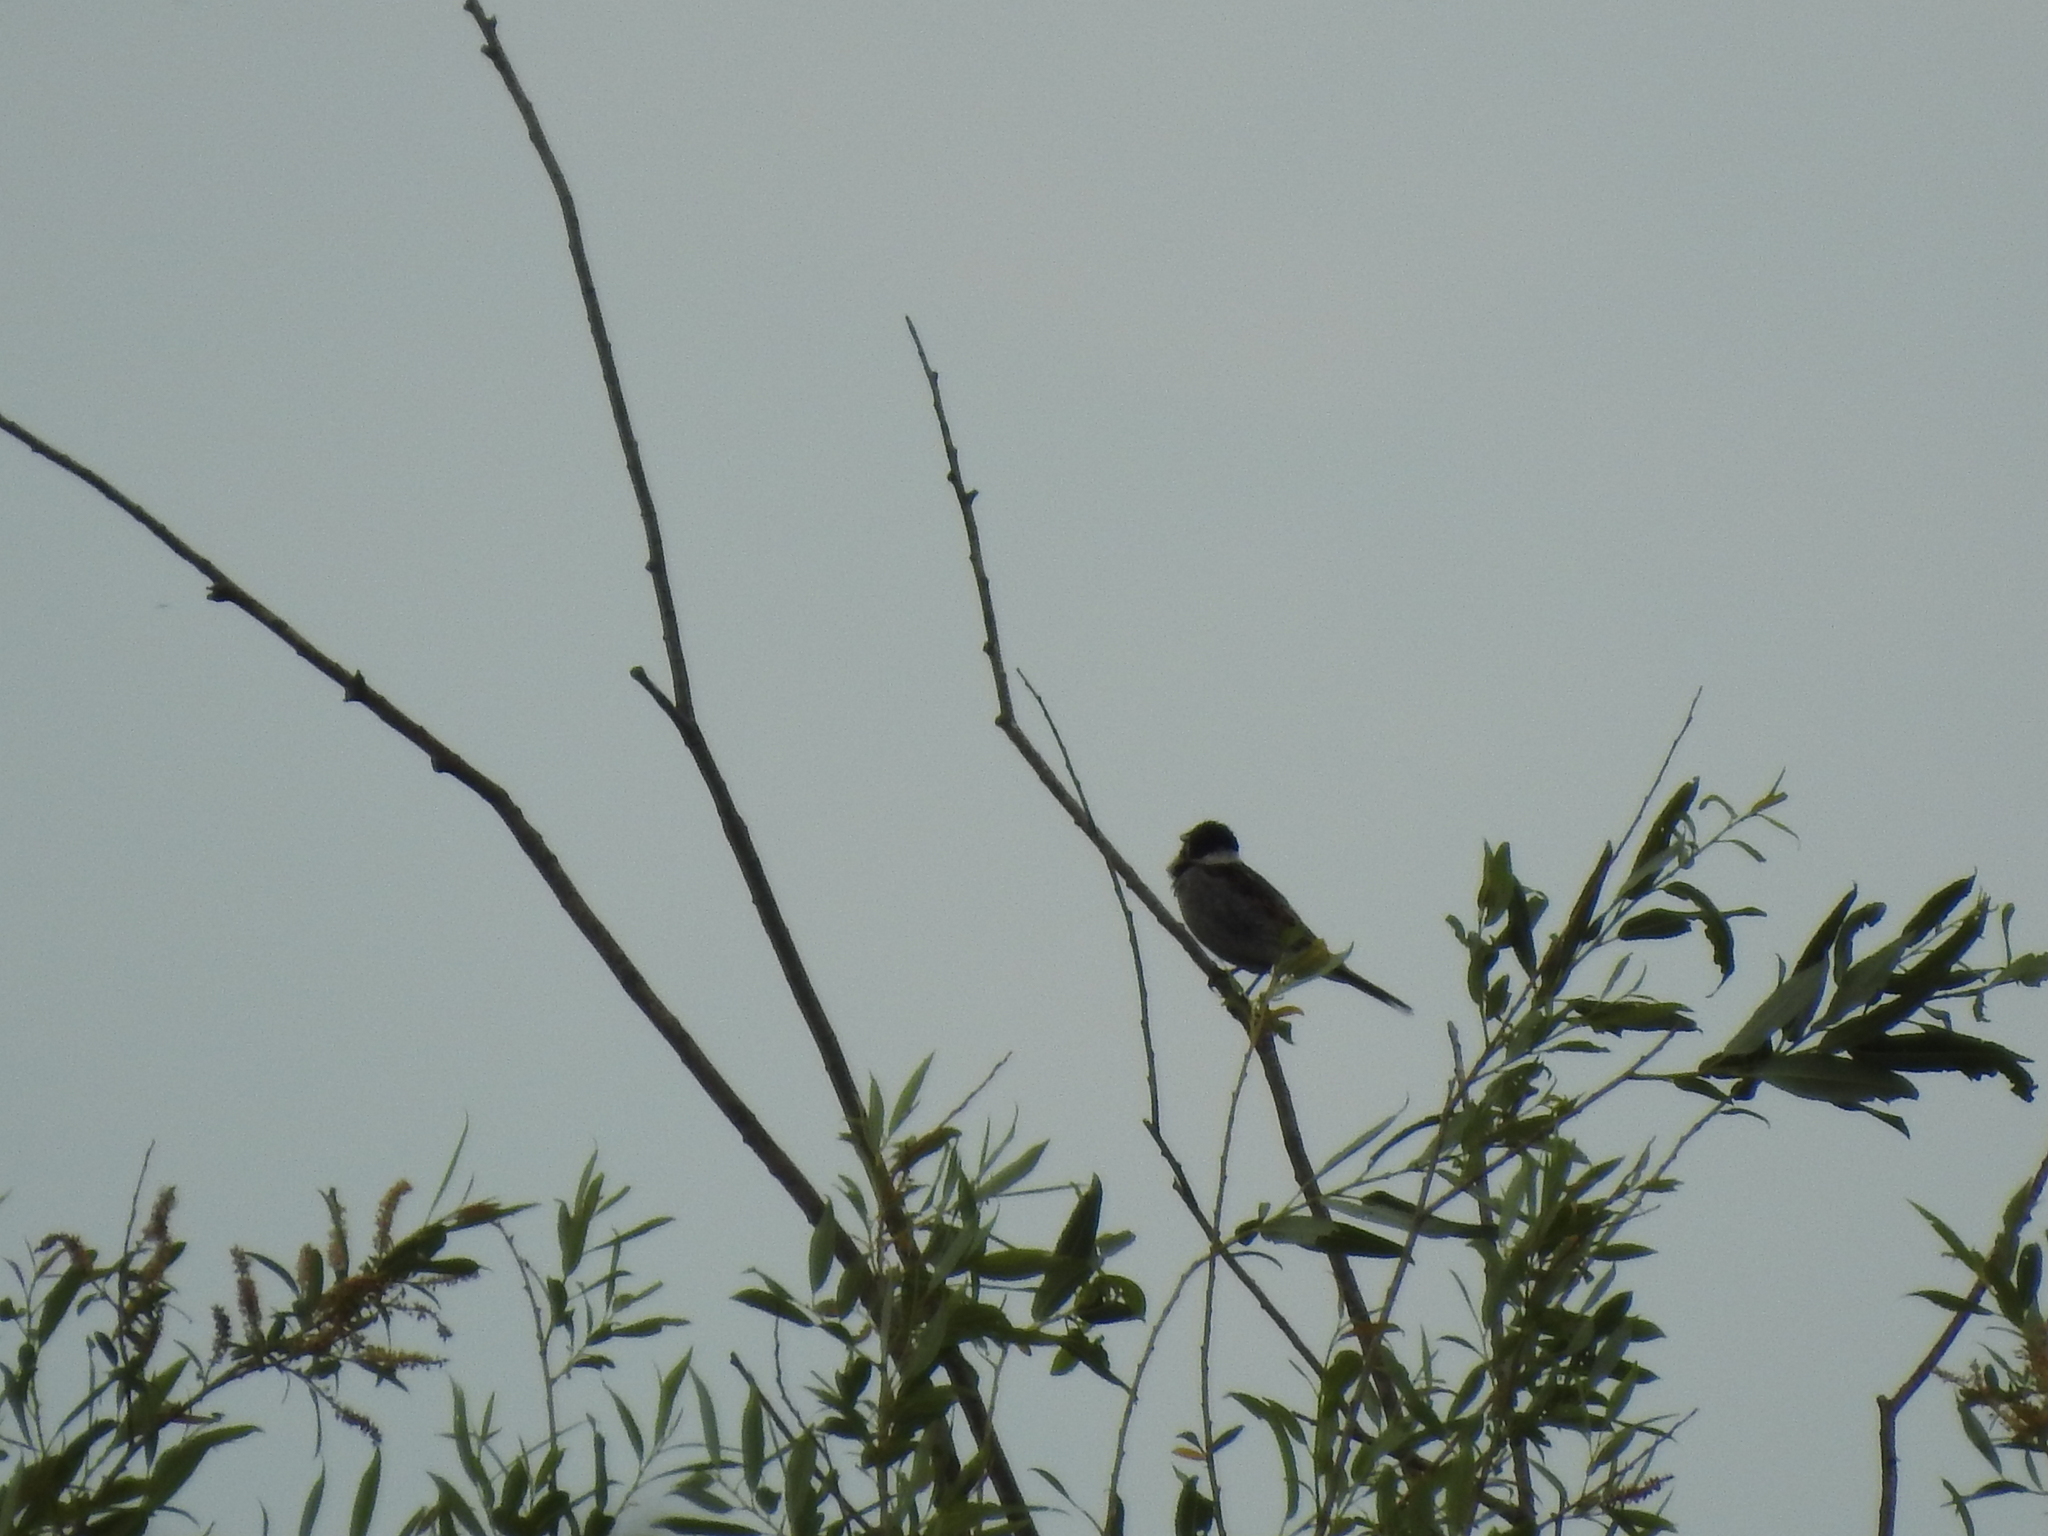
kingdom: Animalia
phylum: Chordata
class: Aves
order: Passeriformes
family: Emberizidae
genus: Emberiza
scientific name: Emberiza schoeniclus
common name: Reed bunting
